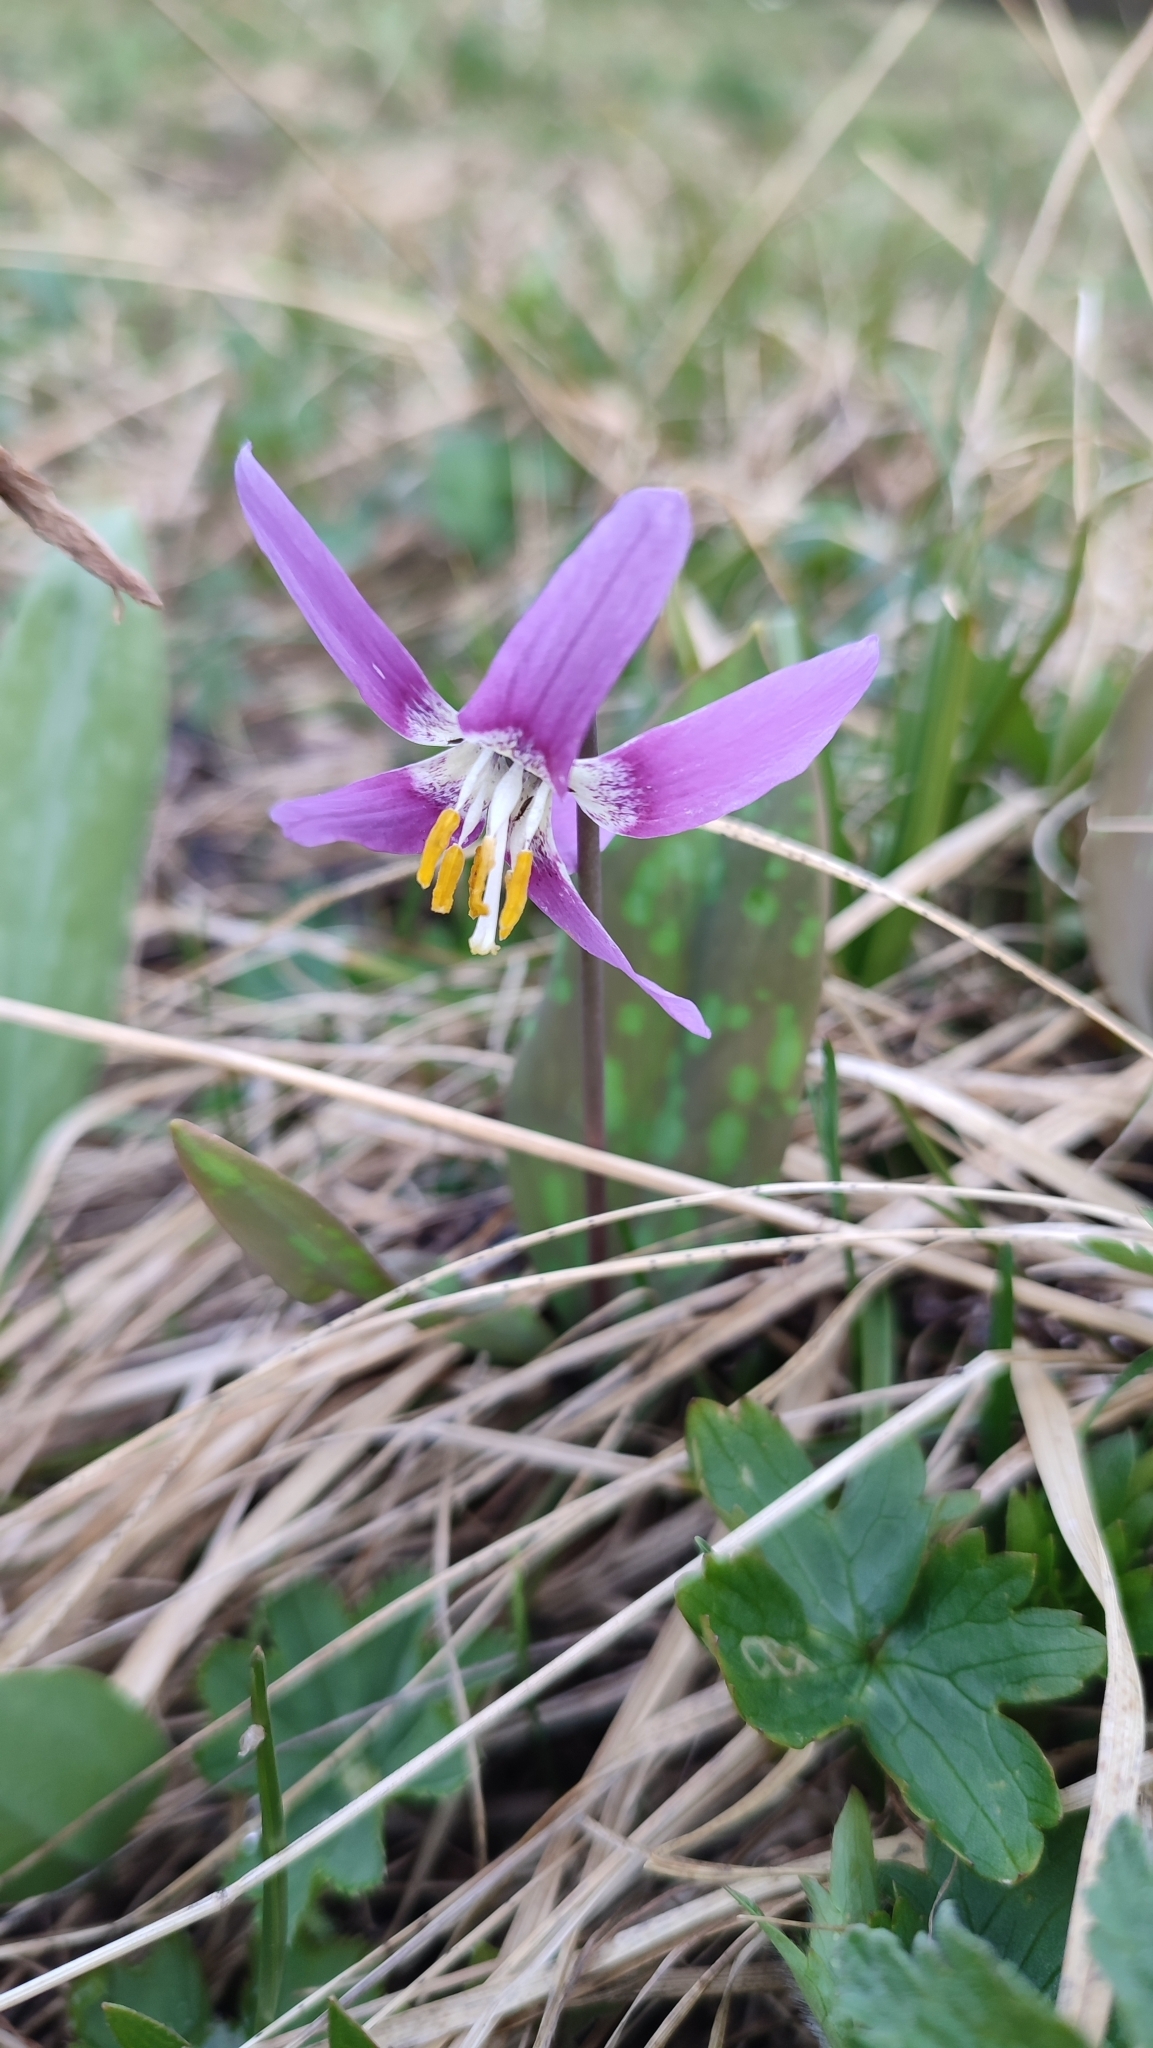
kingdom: Plantae
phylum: Tracheophyta
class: Liliopsida
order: Liliales
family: Liliaceae
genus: Erythronium
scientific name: Erythronium sibiricum
